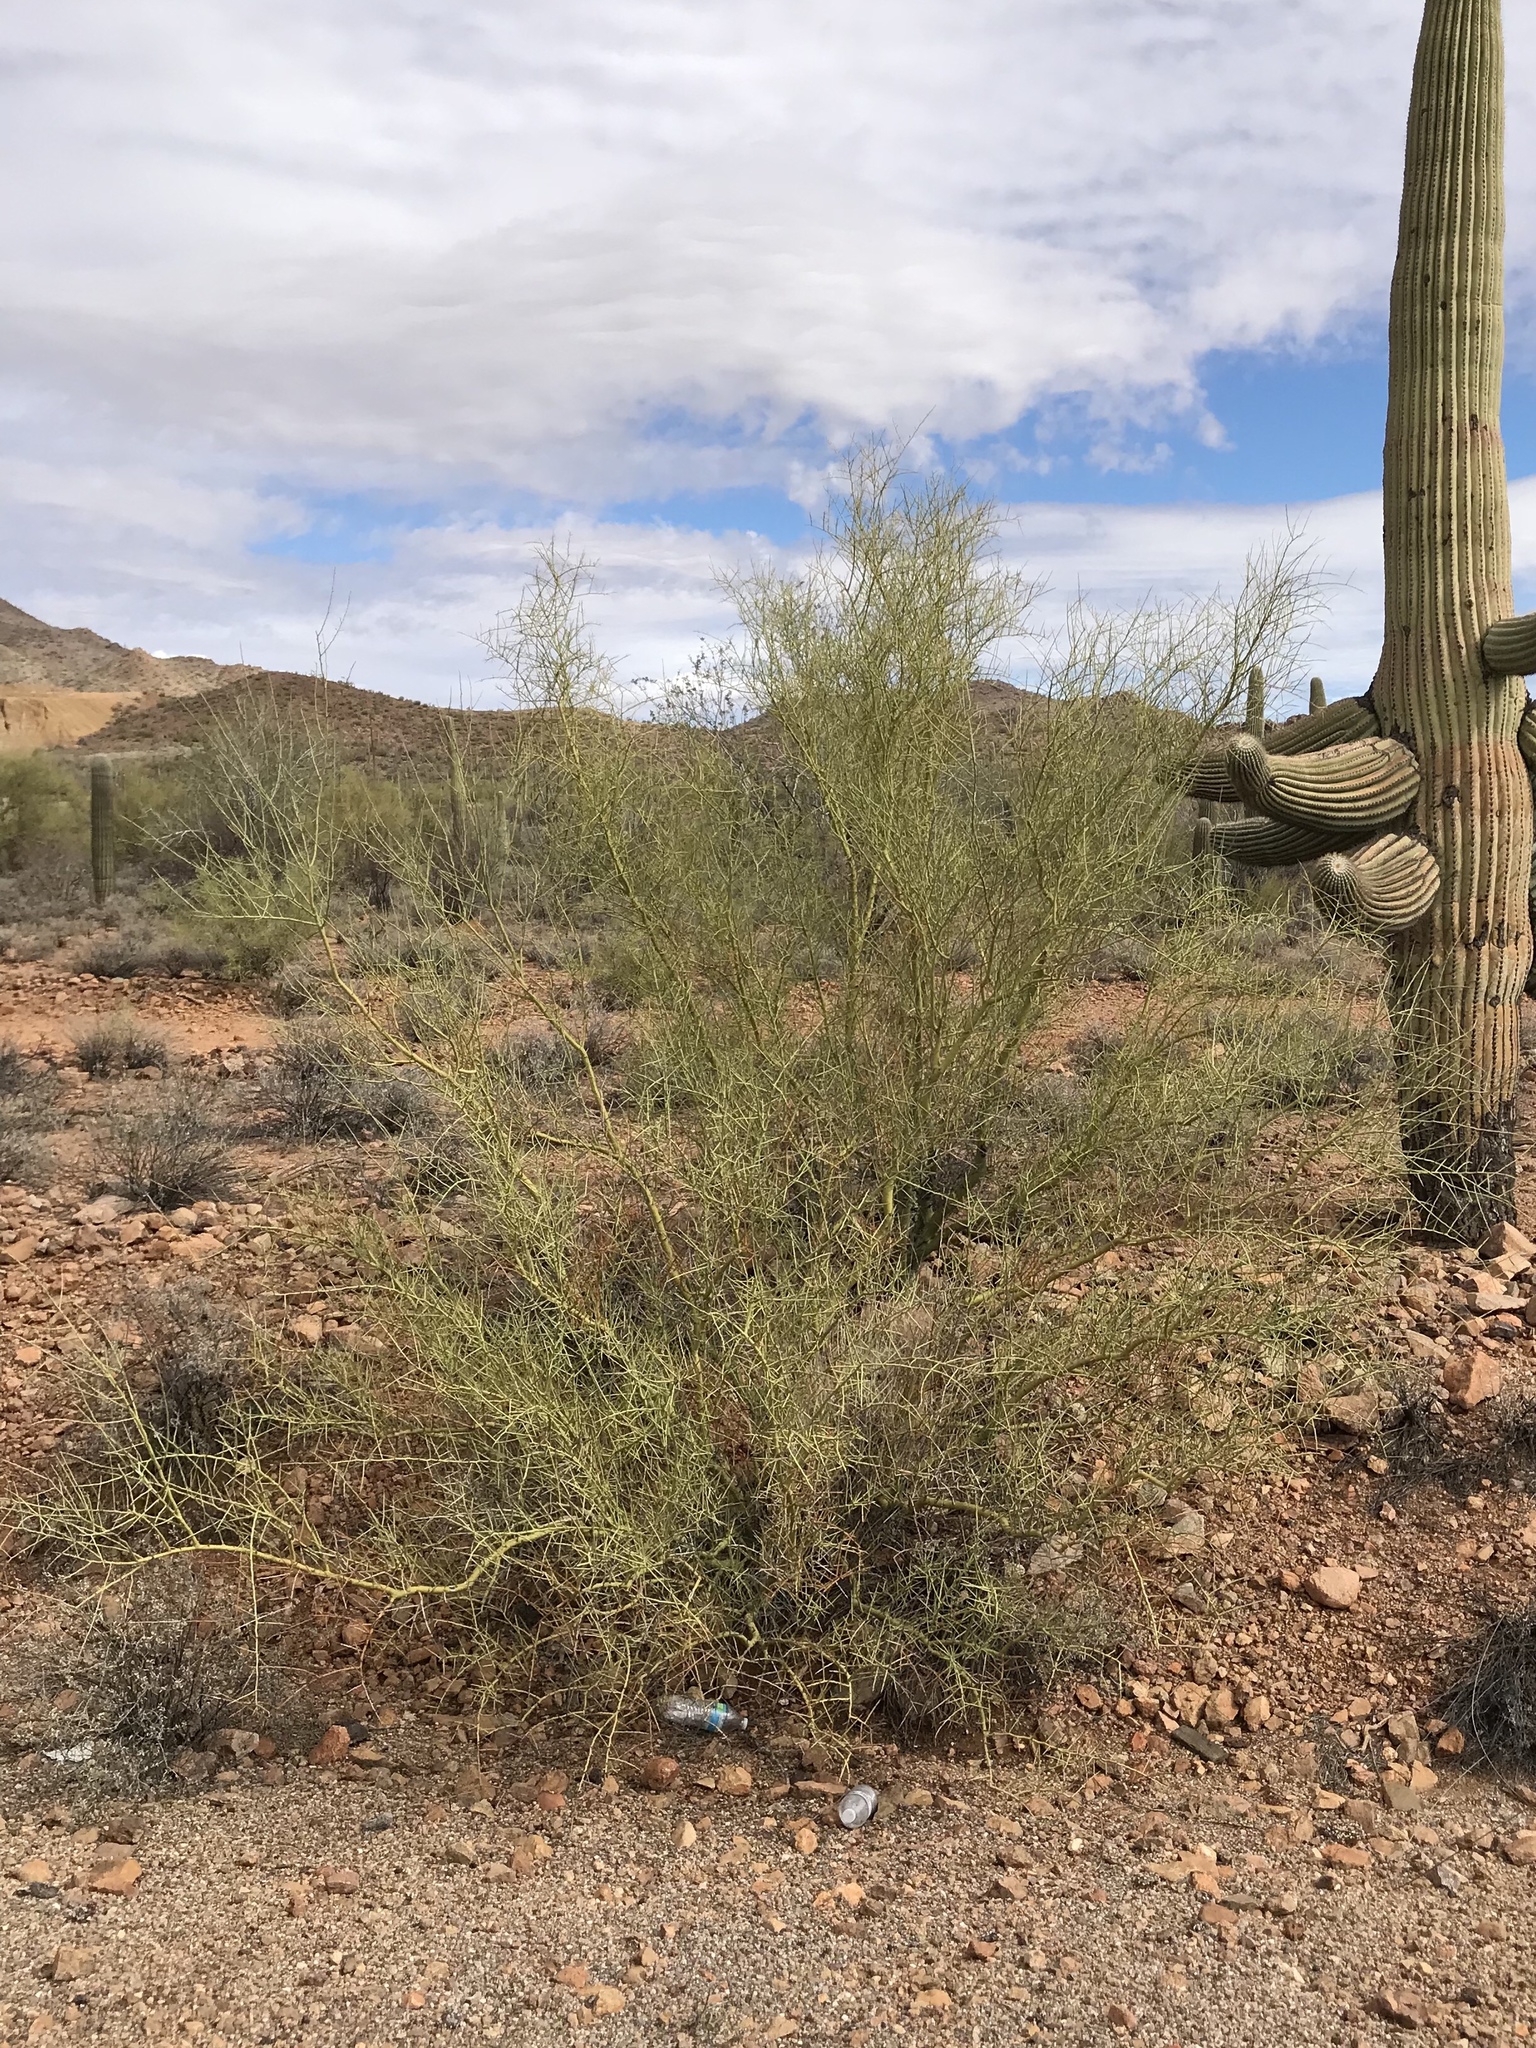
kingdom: Plantae
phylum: Tracheophyta
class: Magnoliopsida
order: Fabales
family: Fabaceae
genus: Parkinsonia
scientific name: Parkinsonia microphylla
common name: Yellow paloverde
